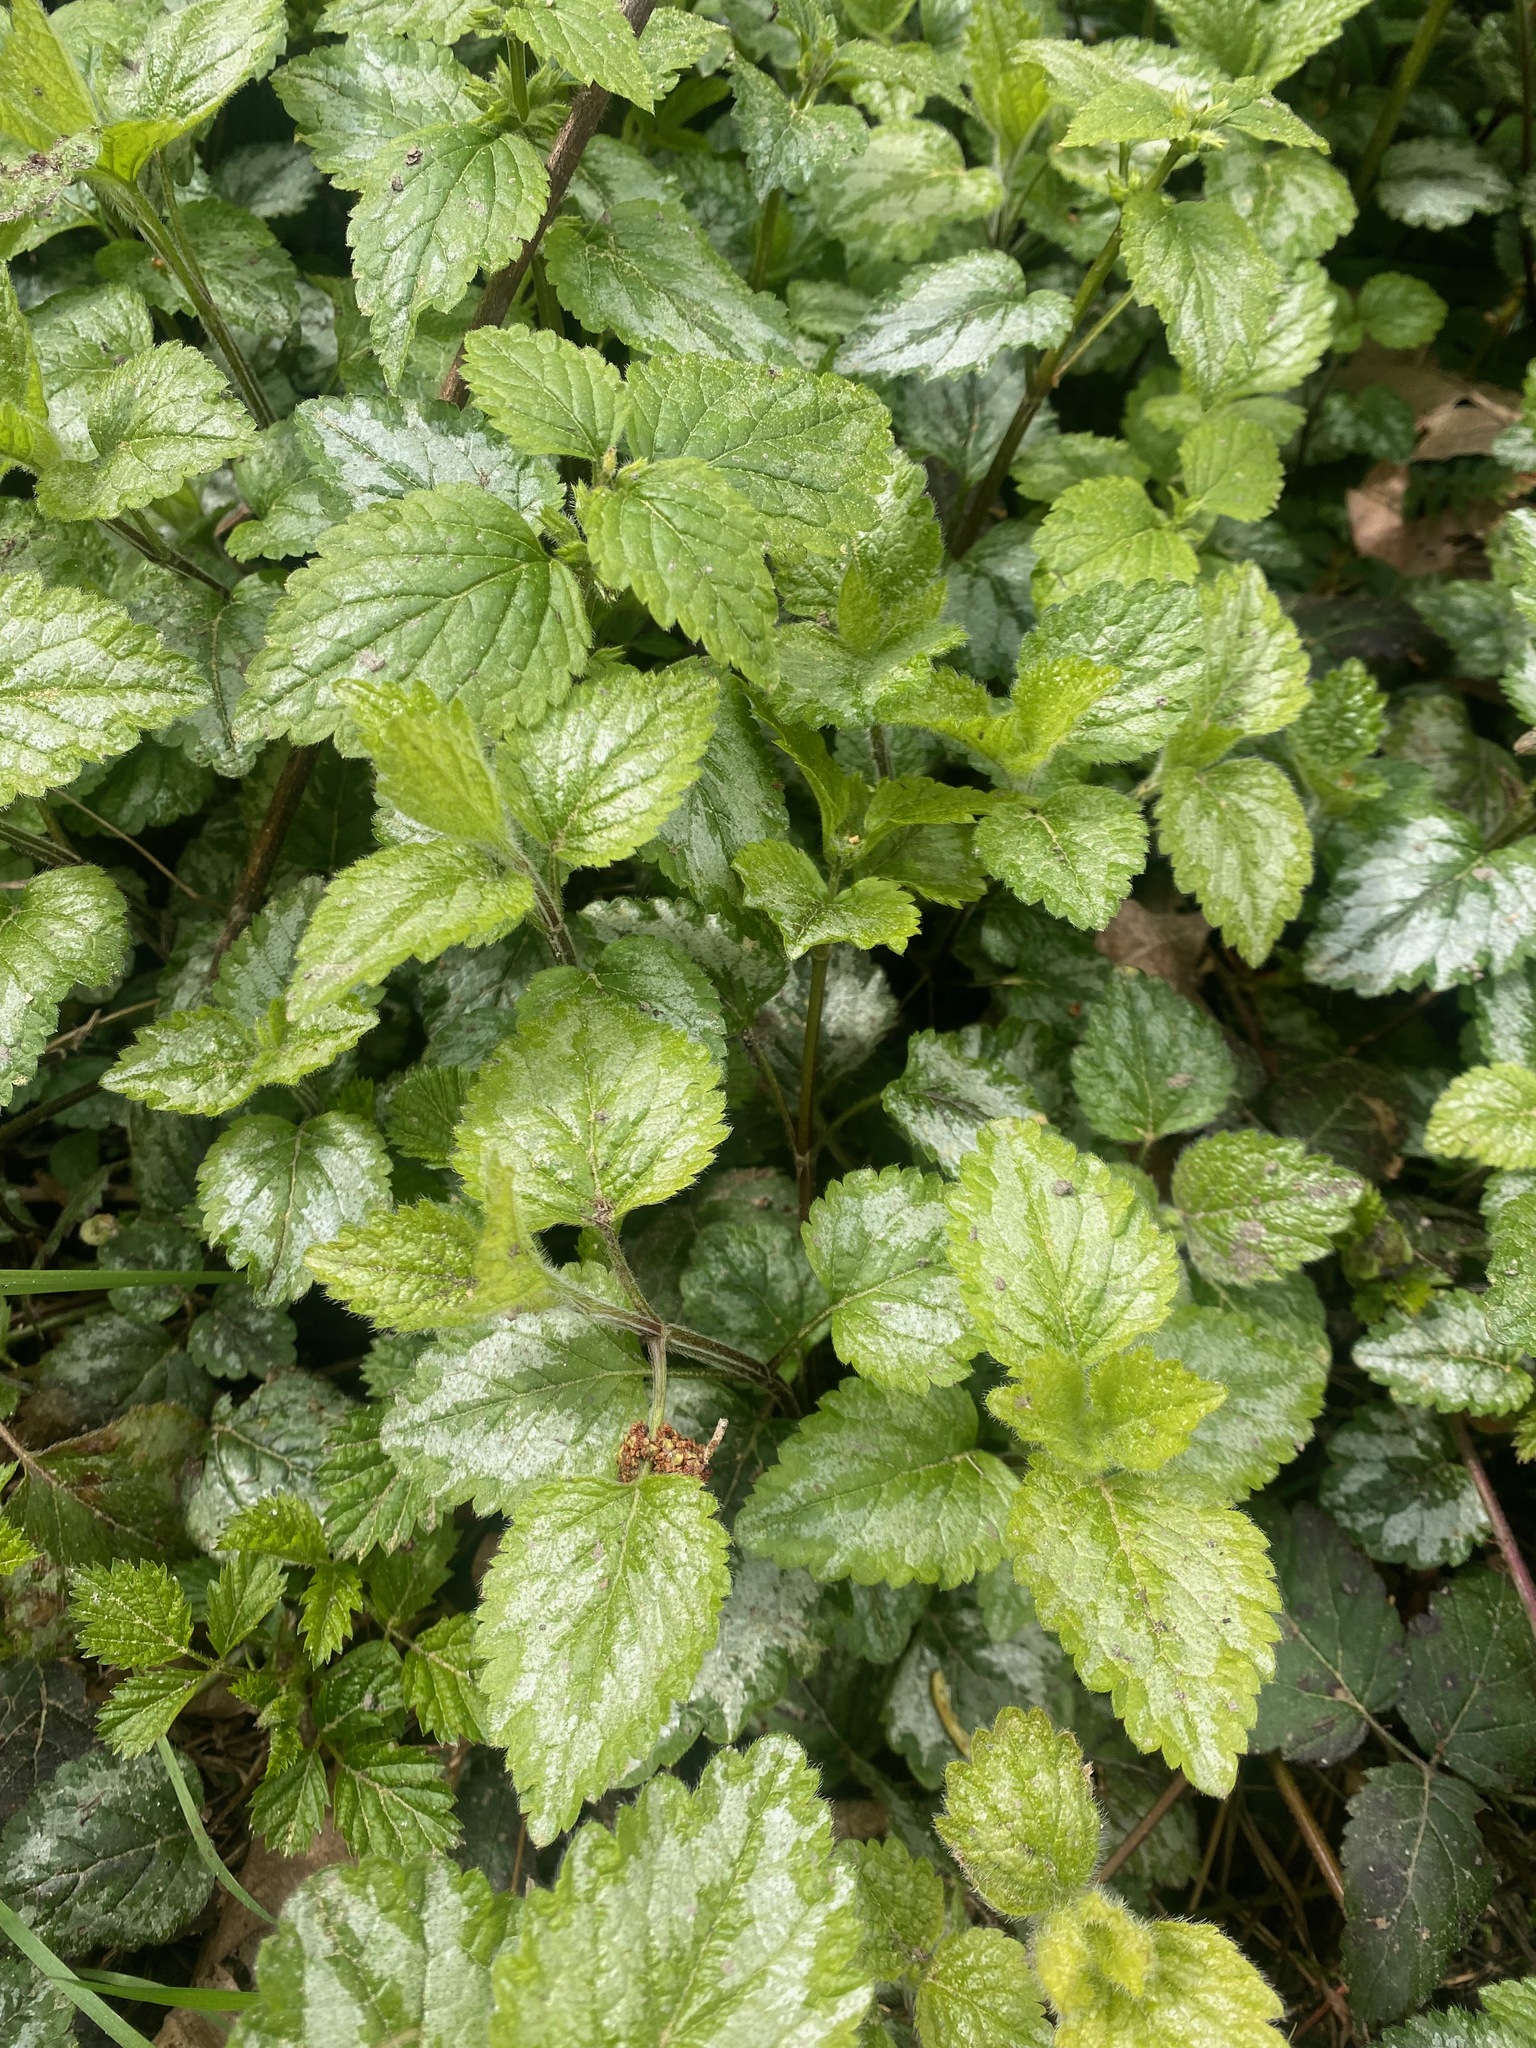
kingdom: Plantae
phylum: Tracheophyta
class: Magnoliopsida
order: Lamiales
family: Lamiaceae
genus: Lamium
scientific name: Lamium galeobdolon
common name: Yellow archangel
